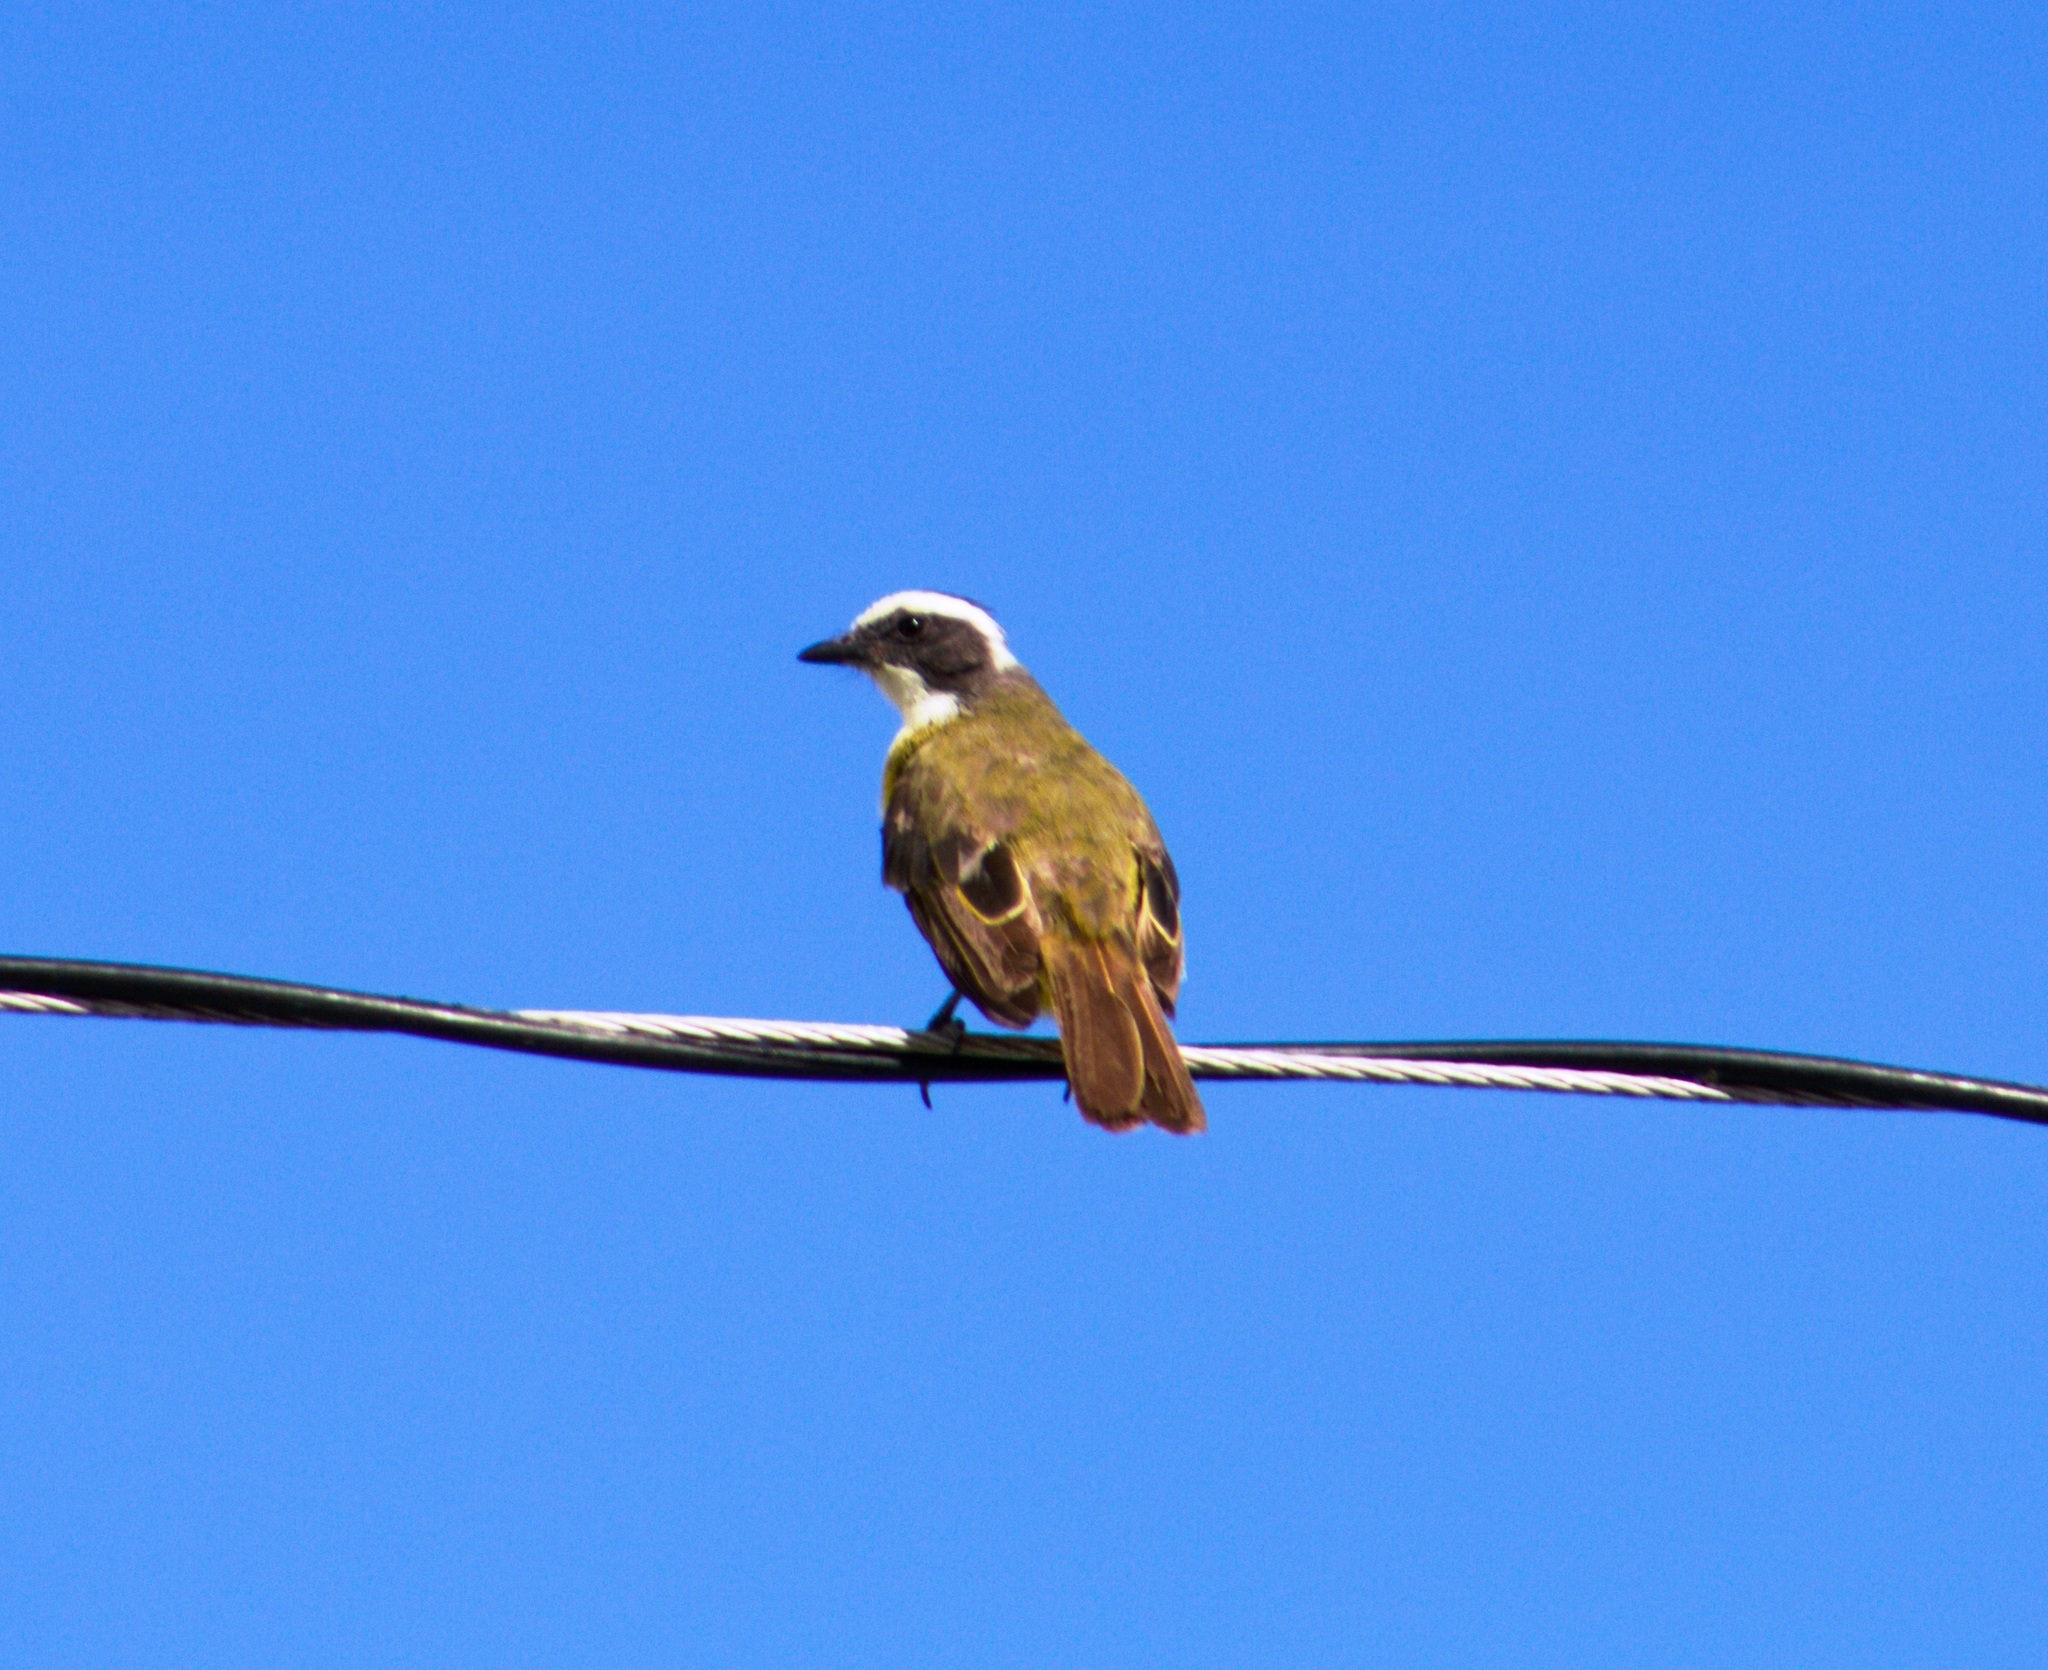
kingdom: Animalia
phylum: Chordata
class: Aves
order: Passeriformes
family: Tyrannidae
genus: Myiozetetes
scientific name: Myiozetetes similis
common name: Social flycatcher
